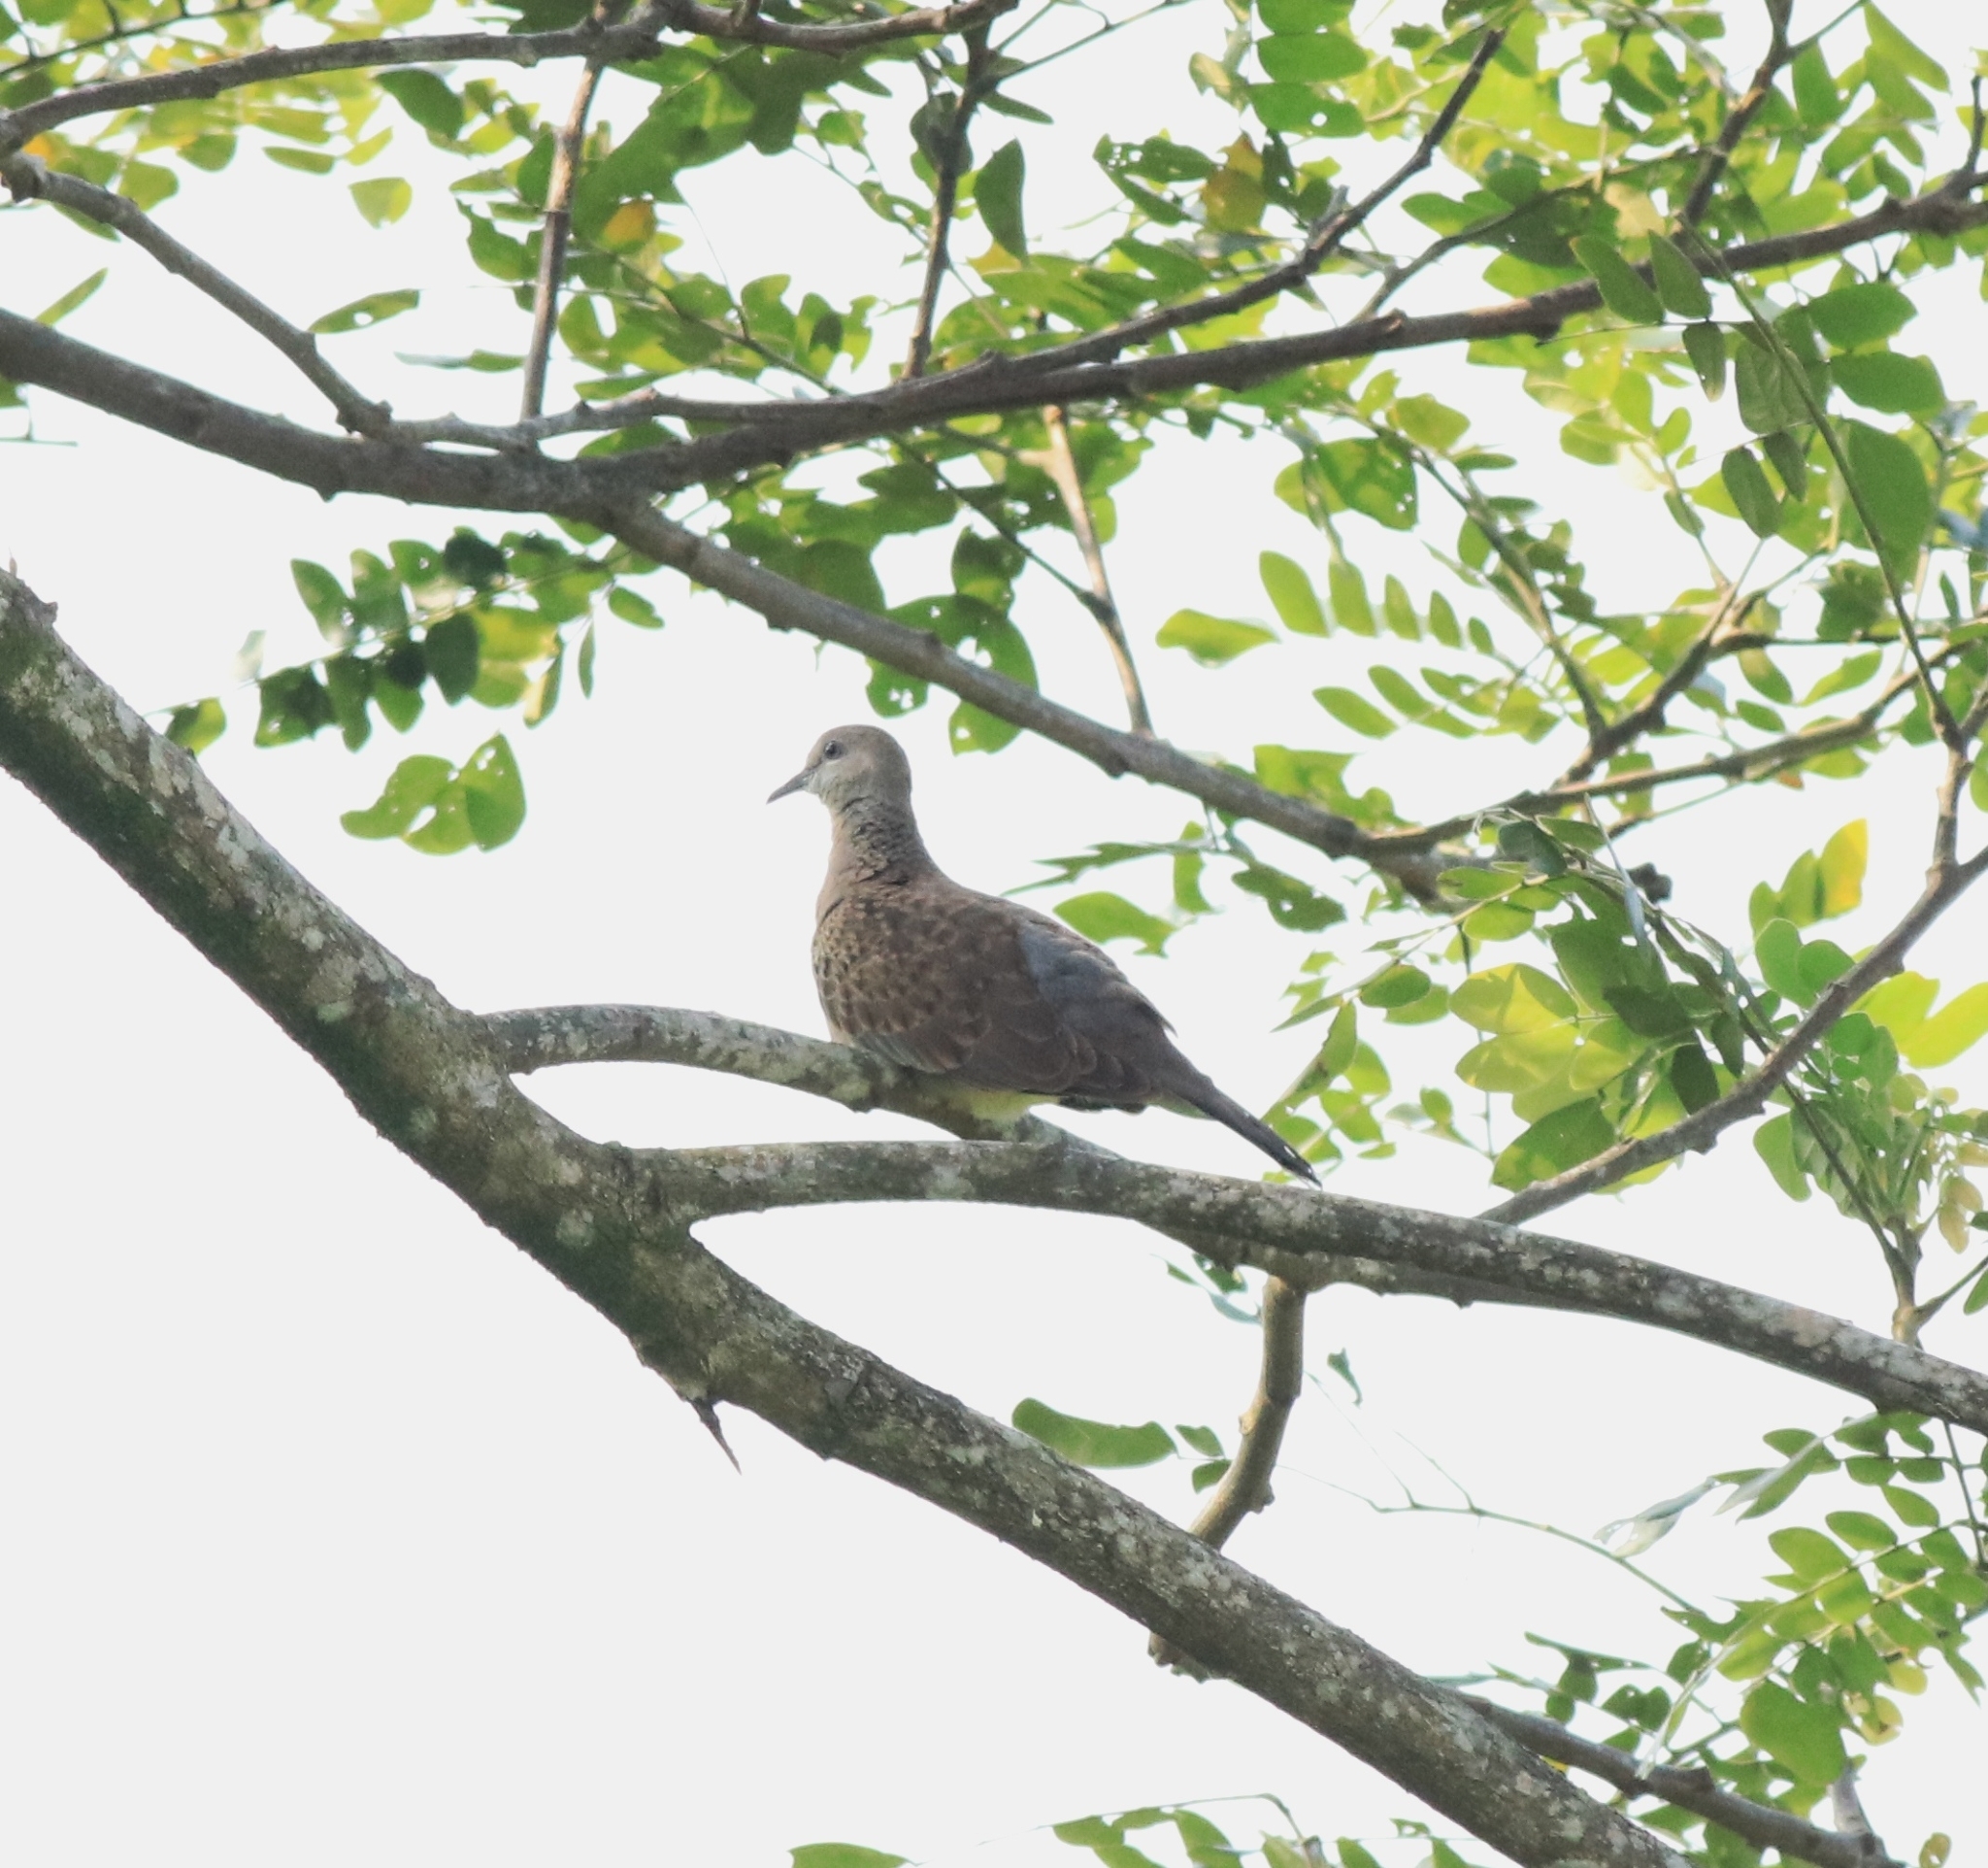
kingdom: Animalia
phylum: Chordata
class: Aves
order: Columbiformes
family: Columbidae
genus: Spilopelia
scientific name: Spilopelia chinensis
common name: Spotted dove
